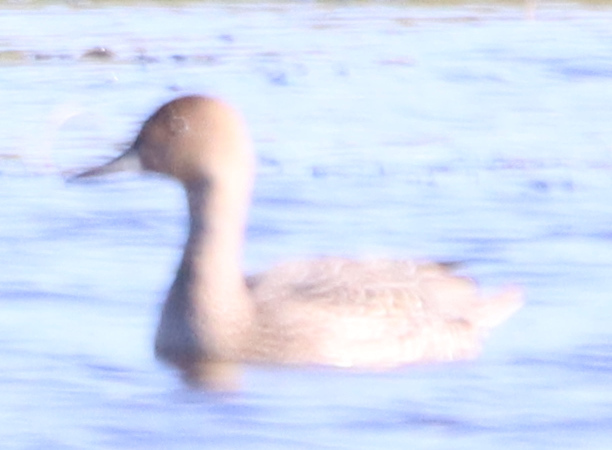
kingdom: Animalia
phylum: Chordata
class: Aves
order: Anseriformes
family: Anatidae
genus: Anas
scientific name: Anas acuta
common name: Northern pintail
